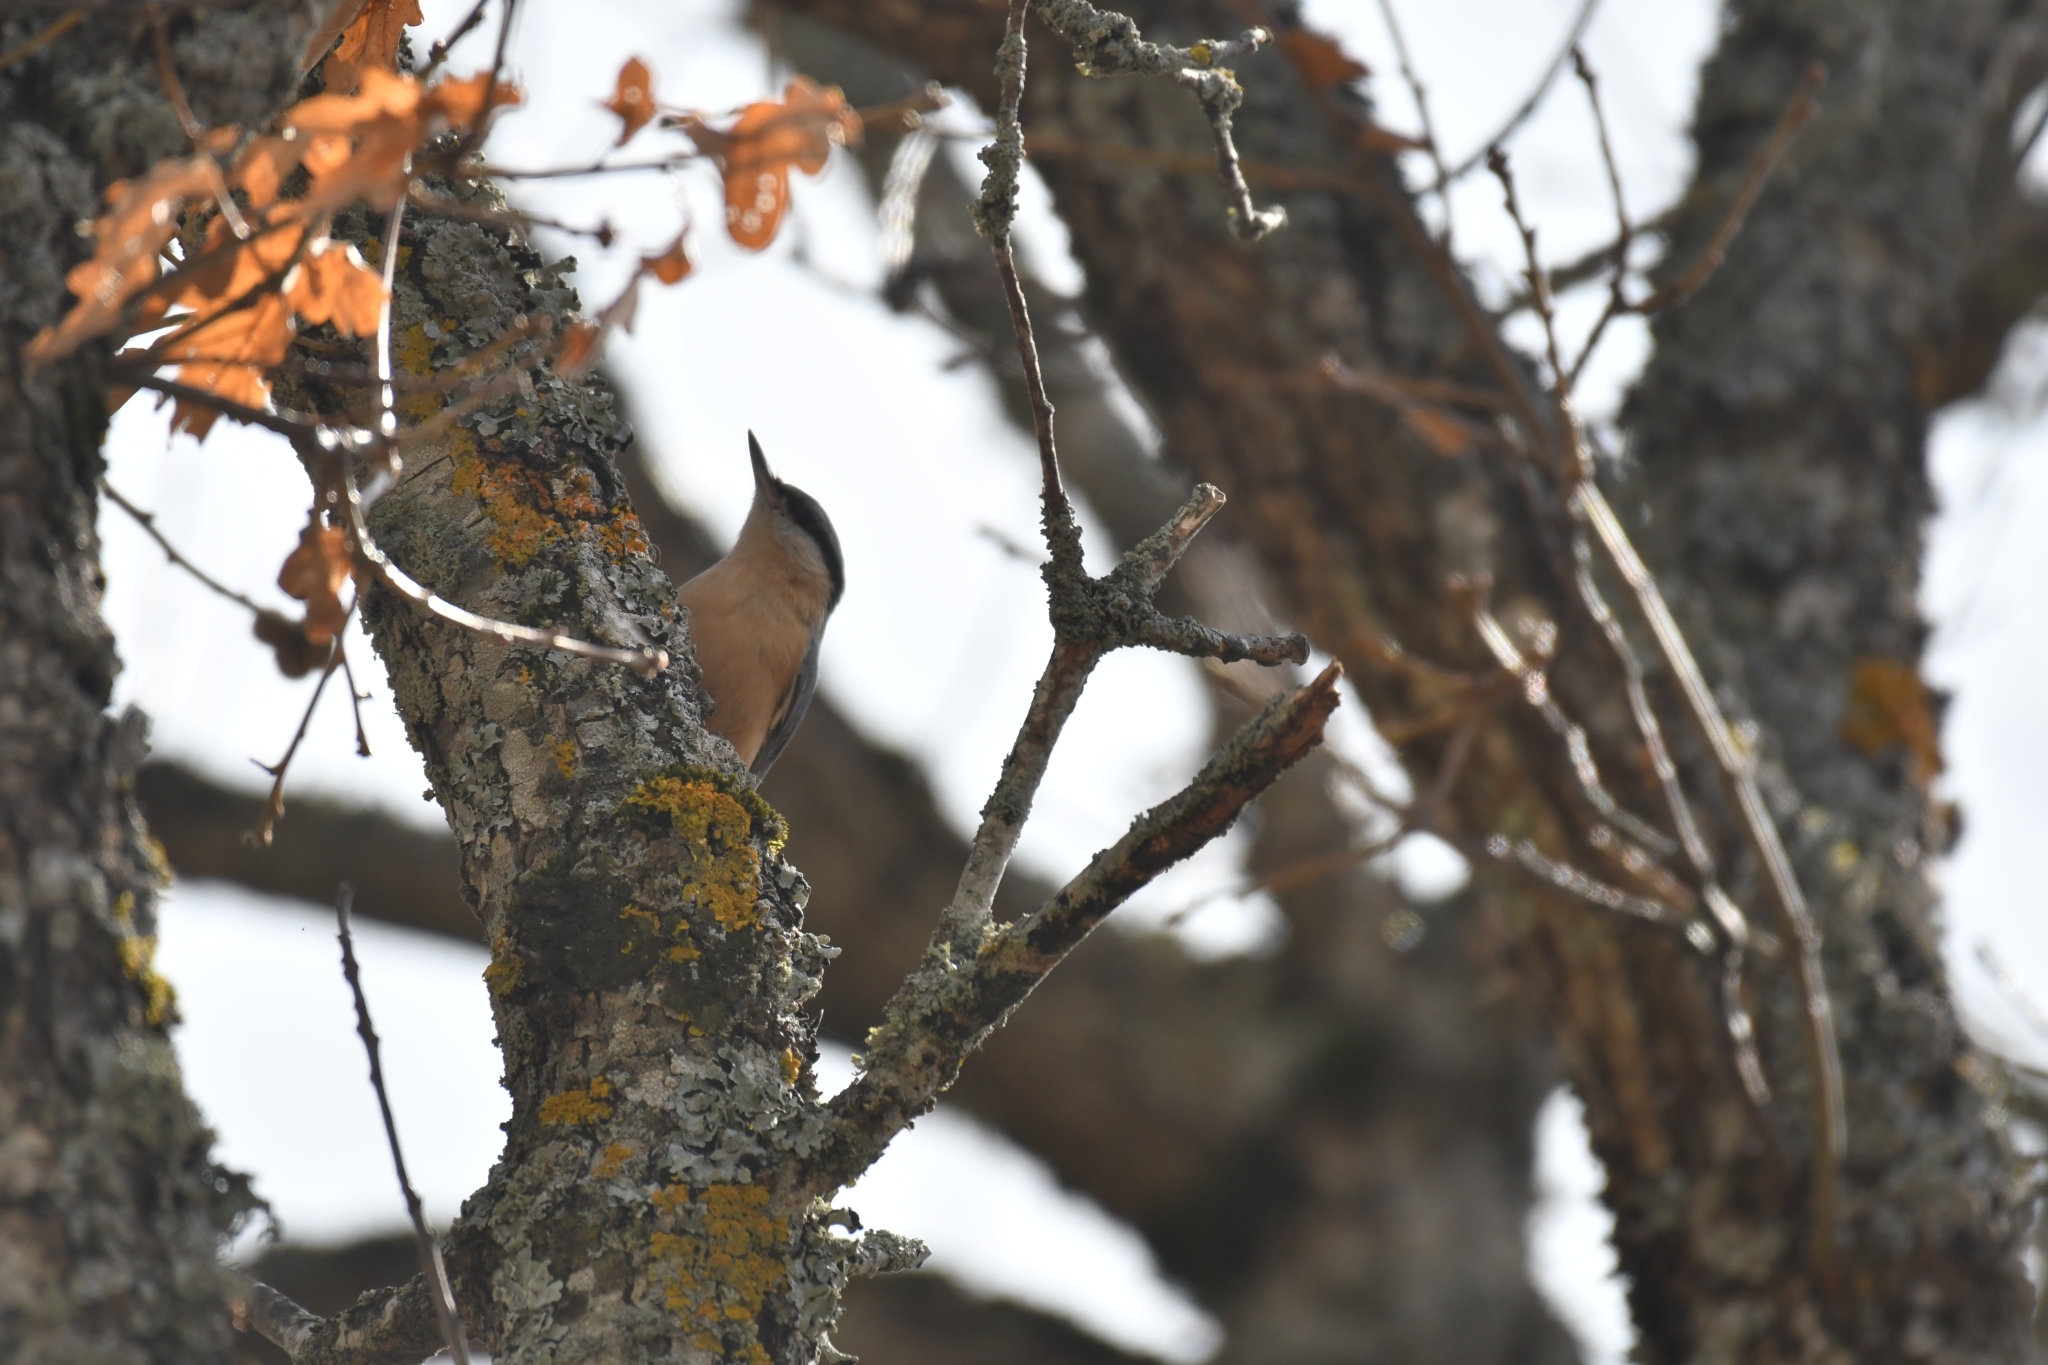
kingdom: Animalia
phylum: Chordata
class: Aves
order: Passeriformes
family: Sittidae
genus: Sitta
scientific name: Sitta europaea
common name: Eurasian nuthatch
